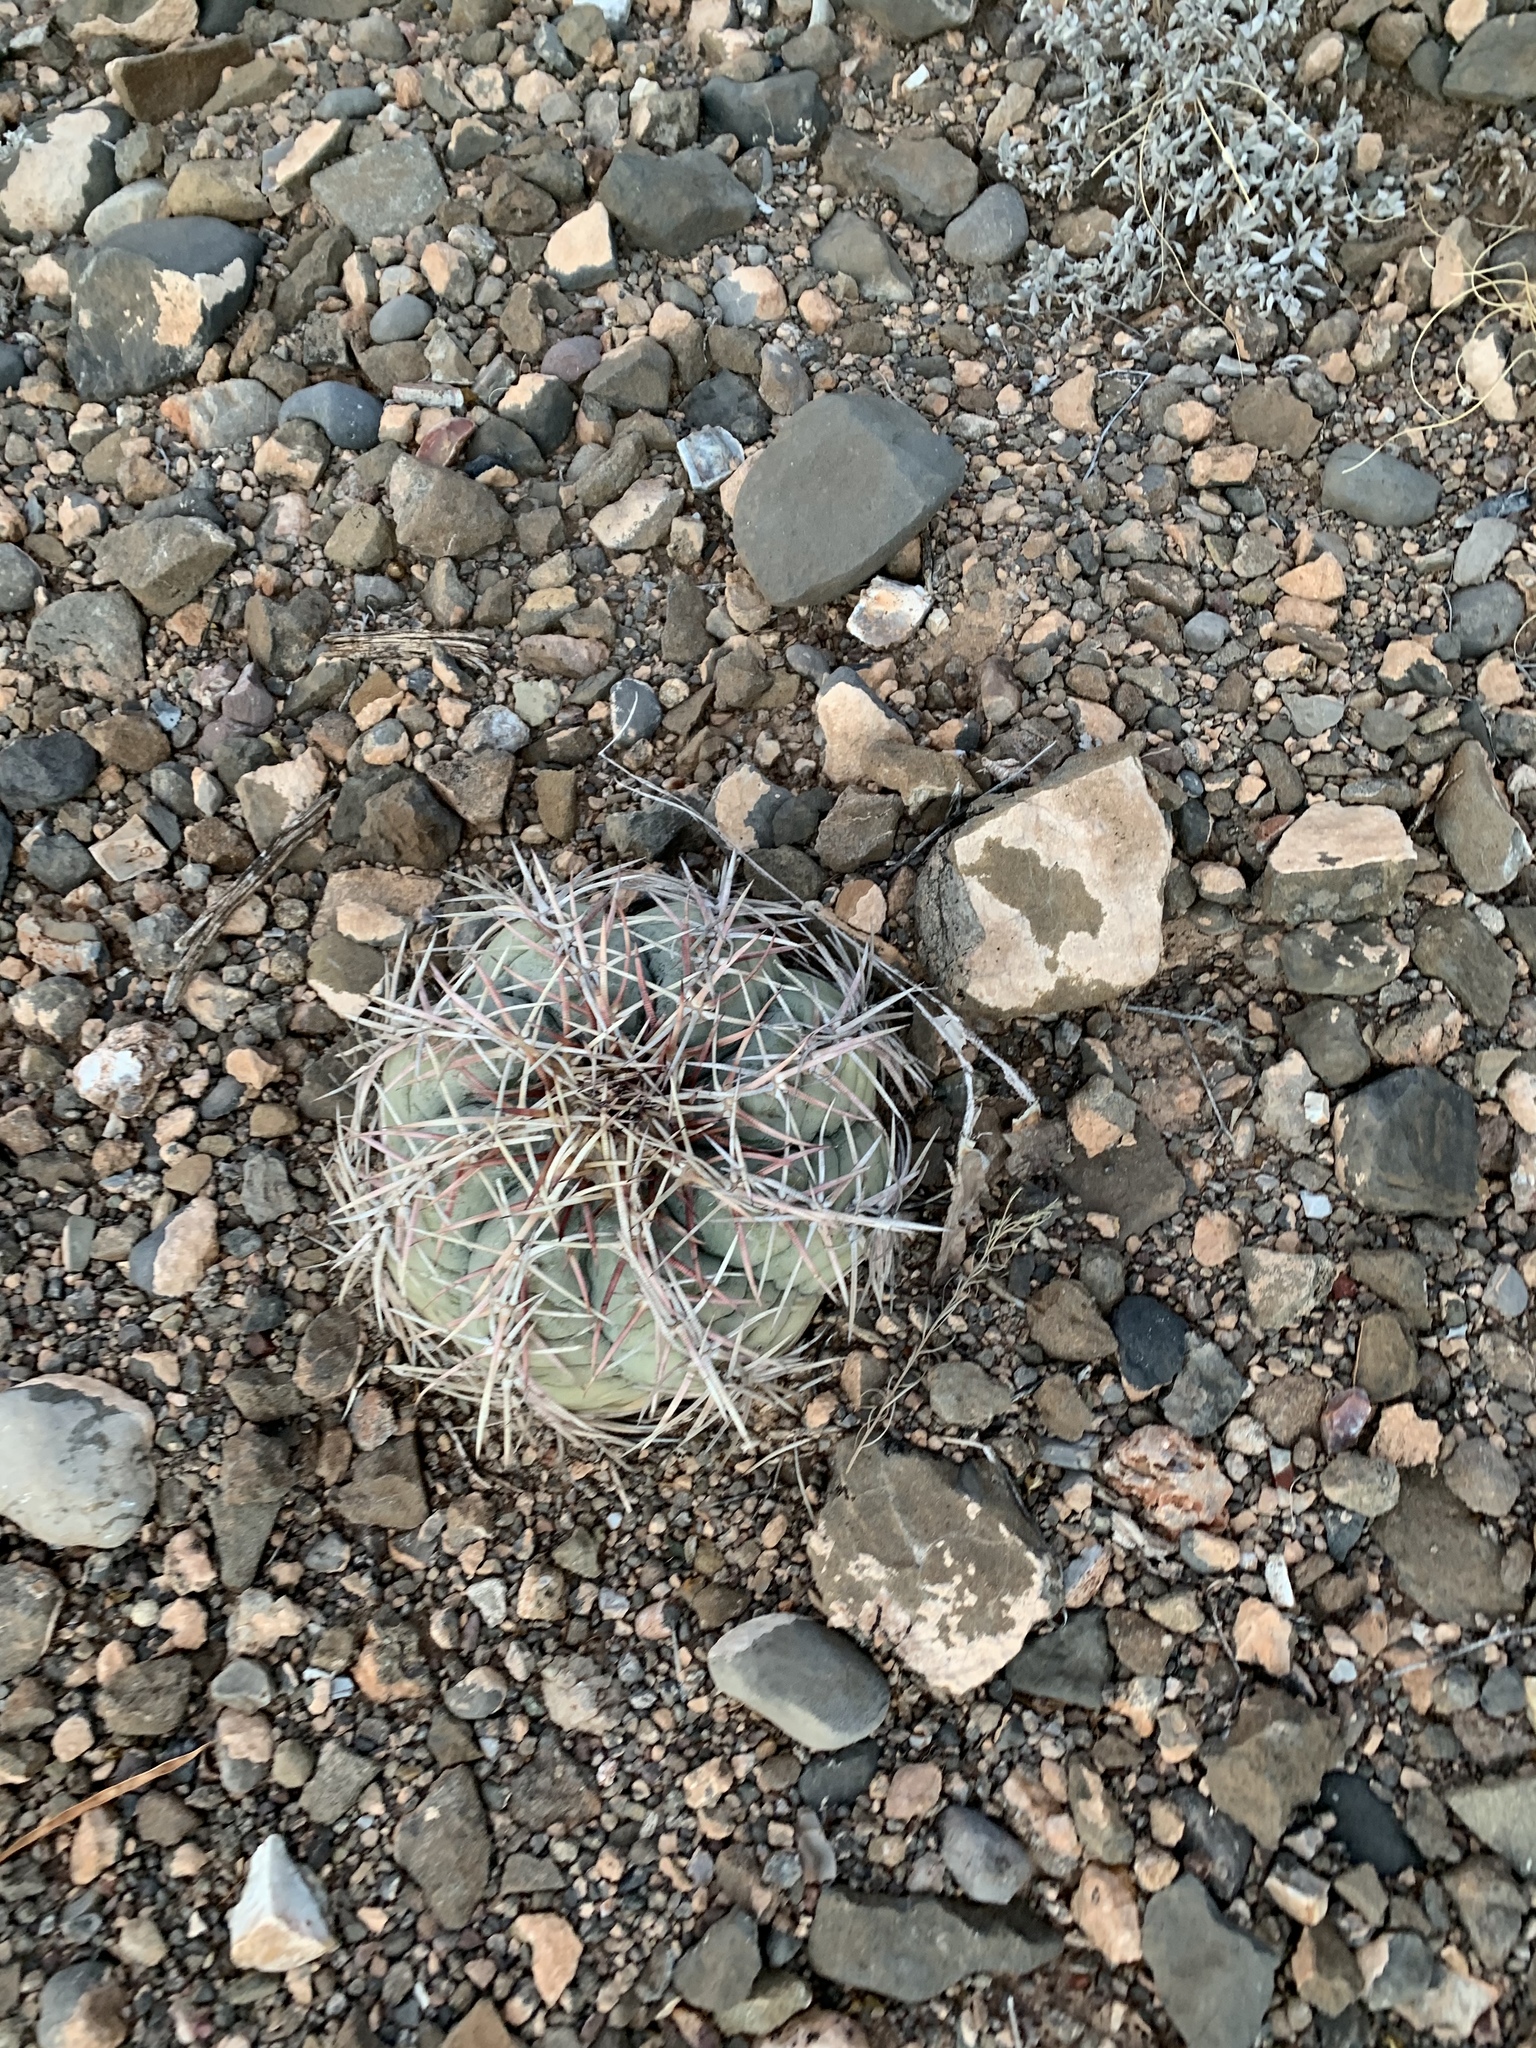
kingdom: Plantae
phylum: Tracheophyta
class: Magnoliopsida
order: Caryophyllales
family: Cactaceae
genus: Echinocactus
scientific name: Echinocactus horizonthalonius
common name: Devilshead
